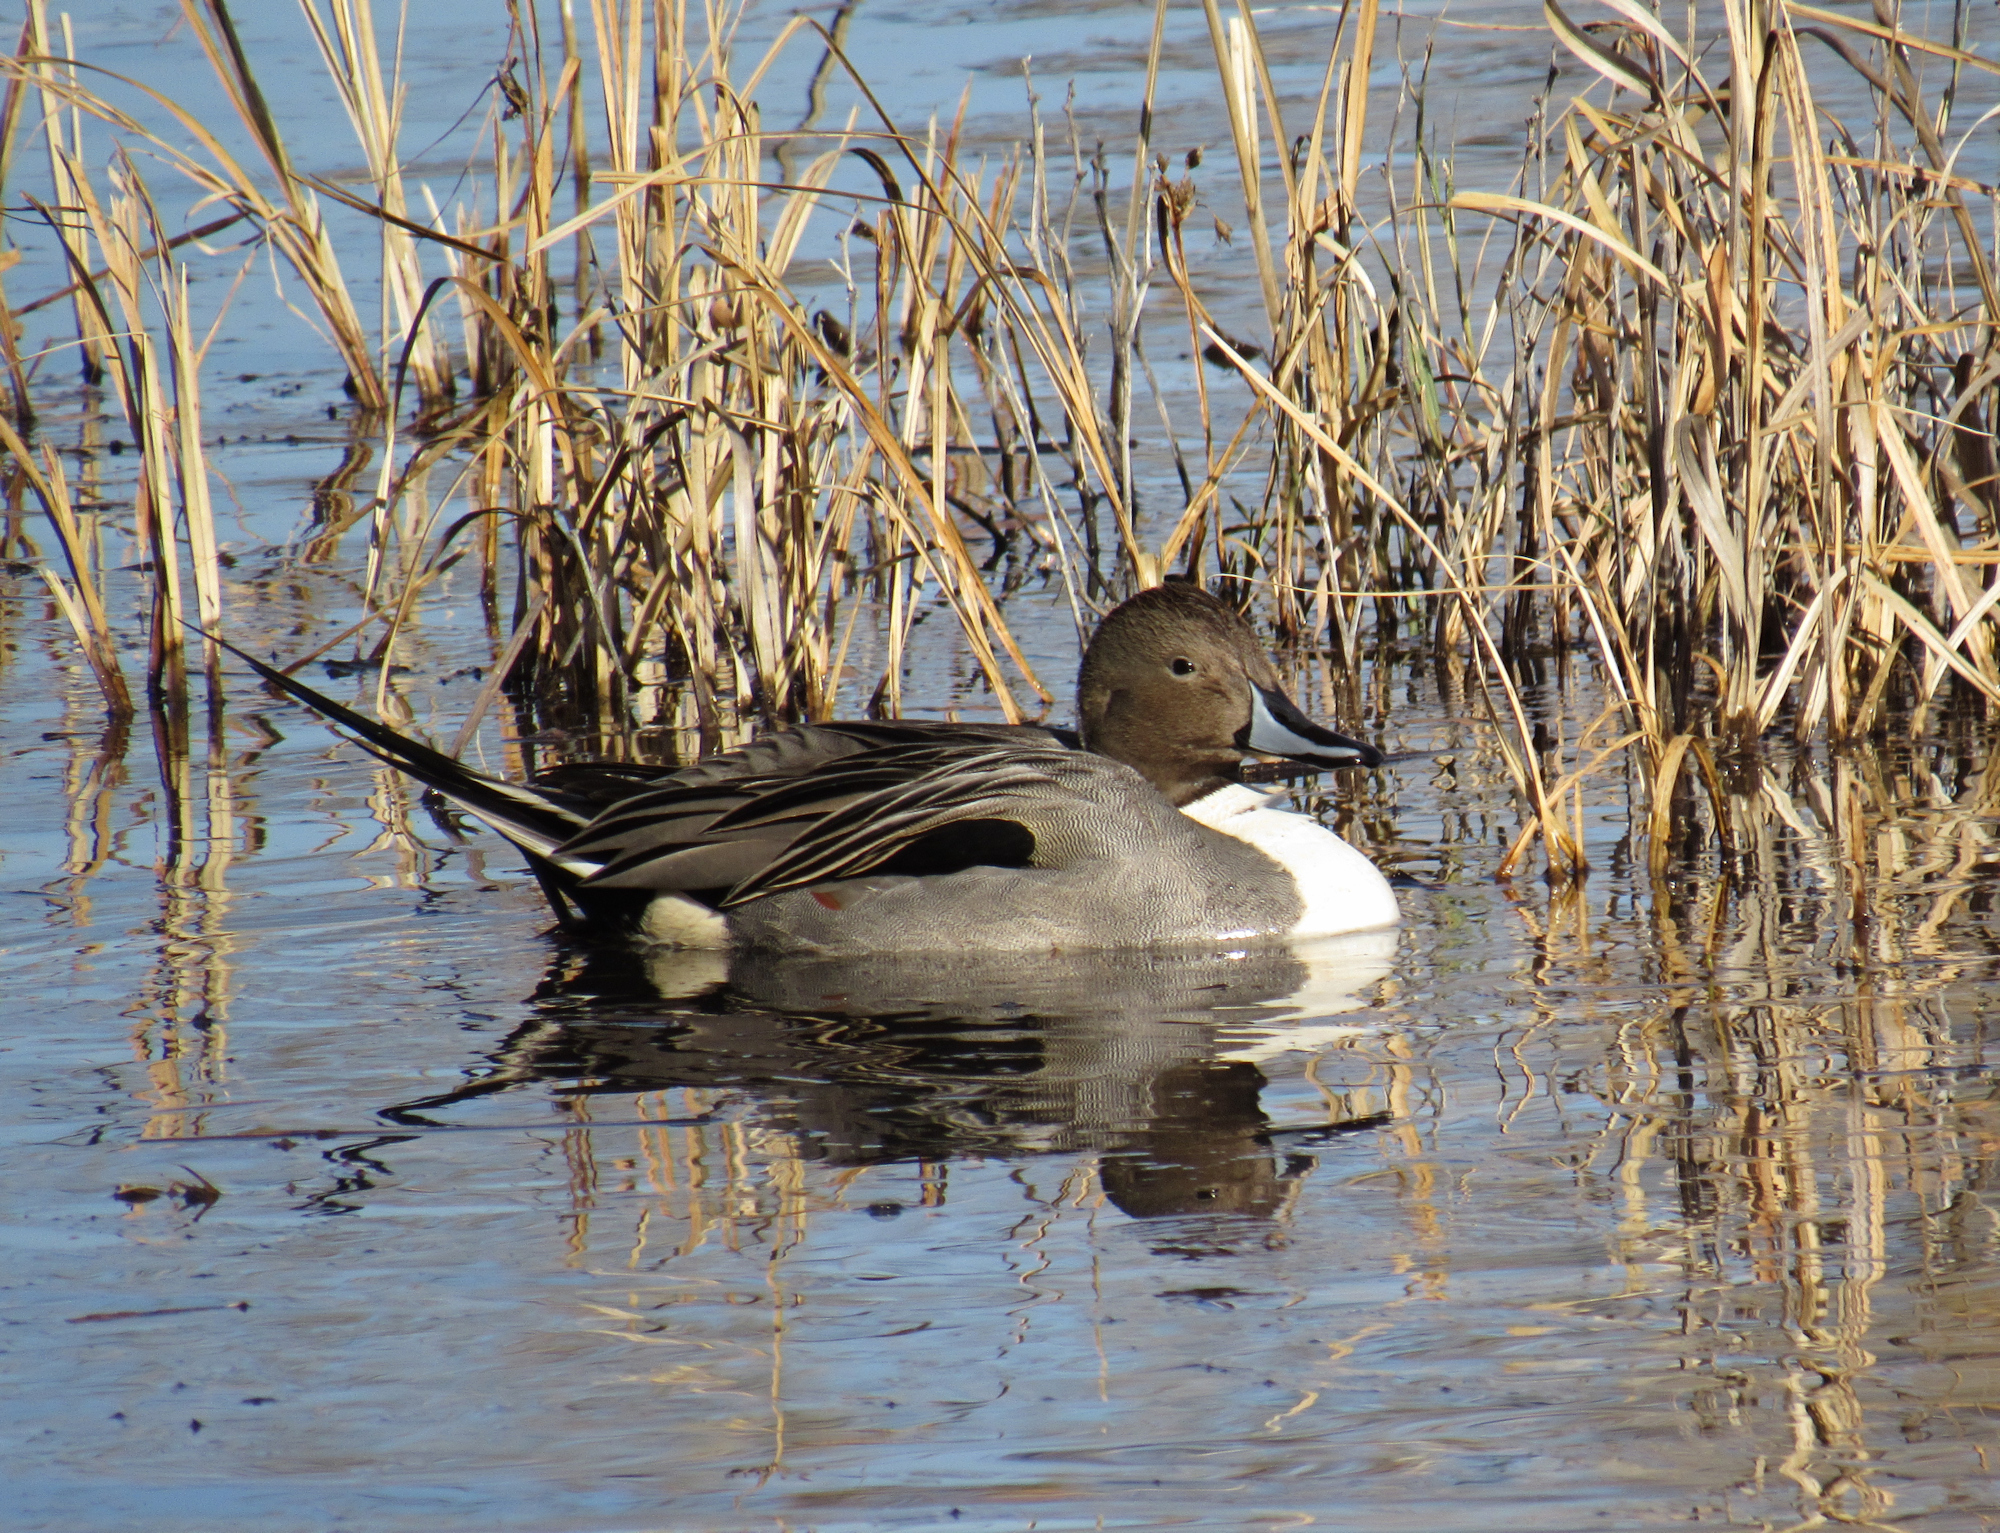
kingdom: Animalia
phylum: Chordata
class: Aves
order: Anseriformes
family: Anatidae
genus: Anas
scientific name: Anas acuta
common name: Northern pintail
